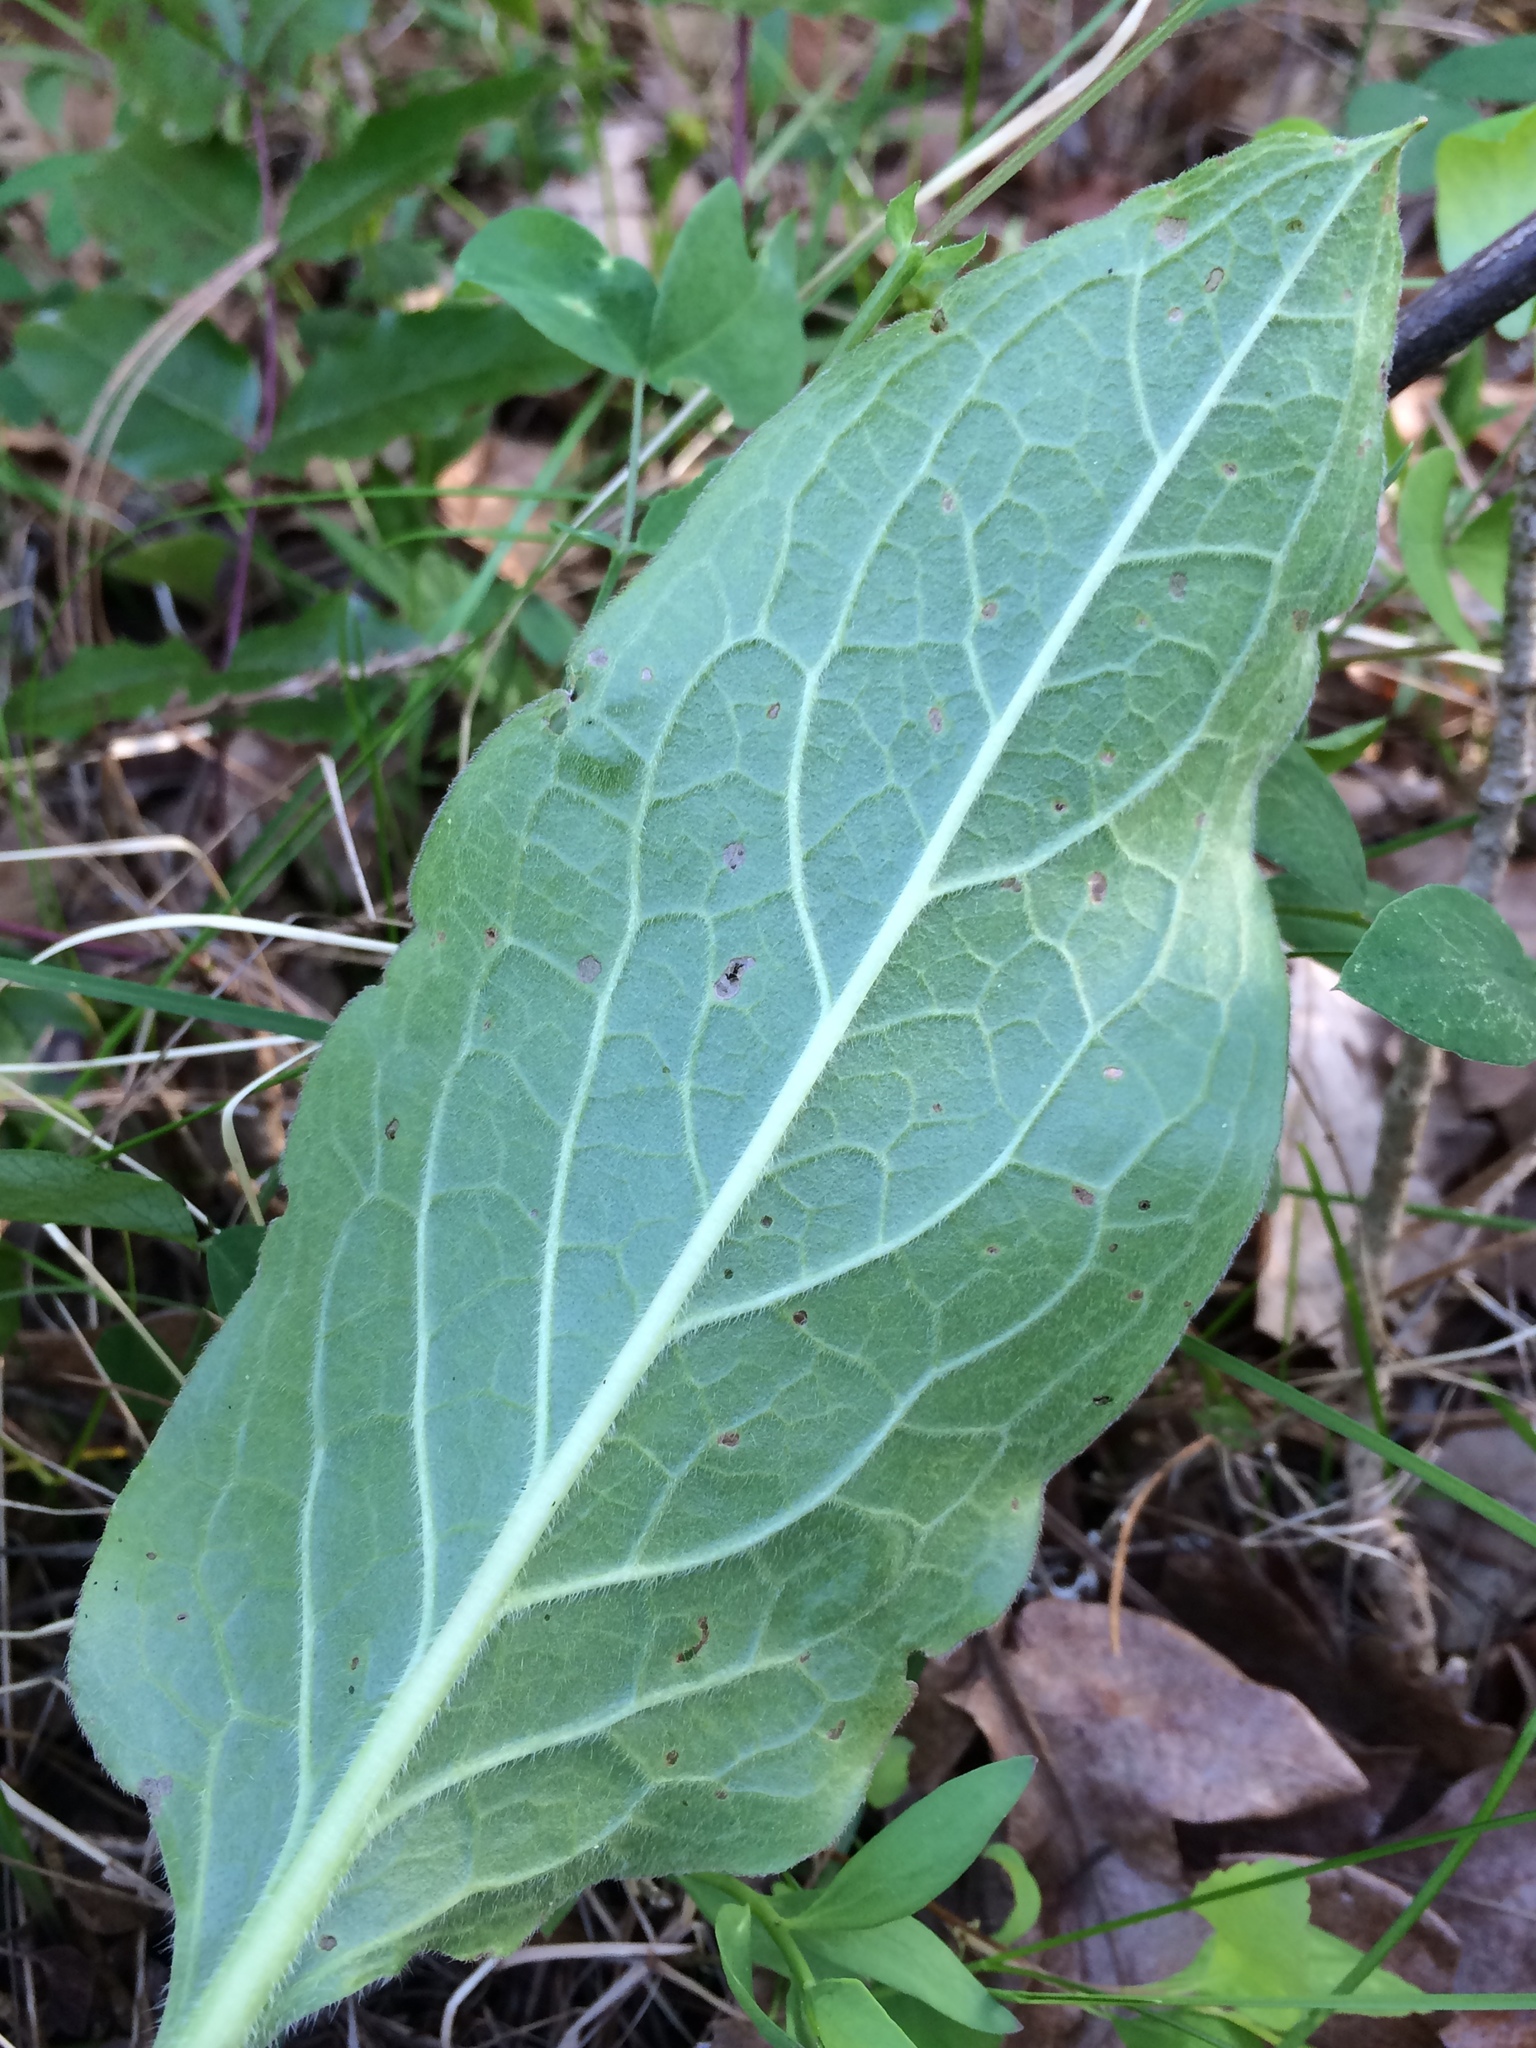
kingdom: Plantae
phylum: Tracheophyta
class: Magnoliopsida
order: Boraginales
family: Boraginaceae
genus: Adelinia
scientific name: Adelinia grande
